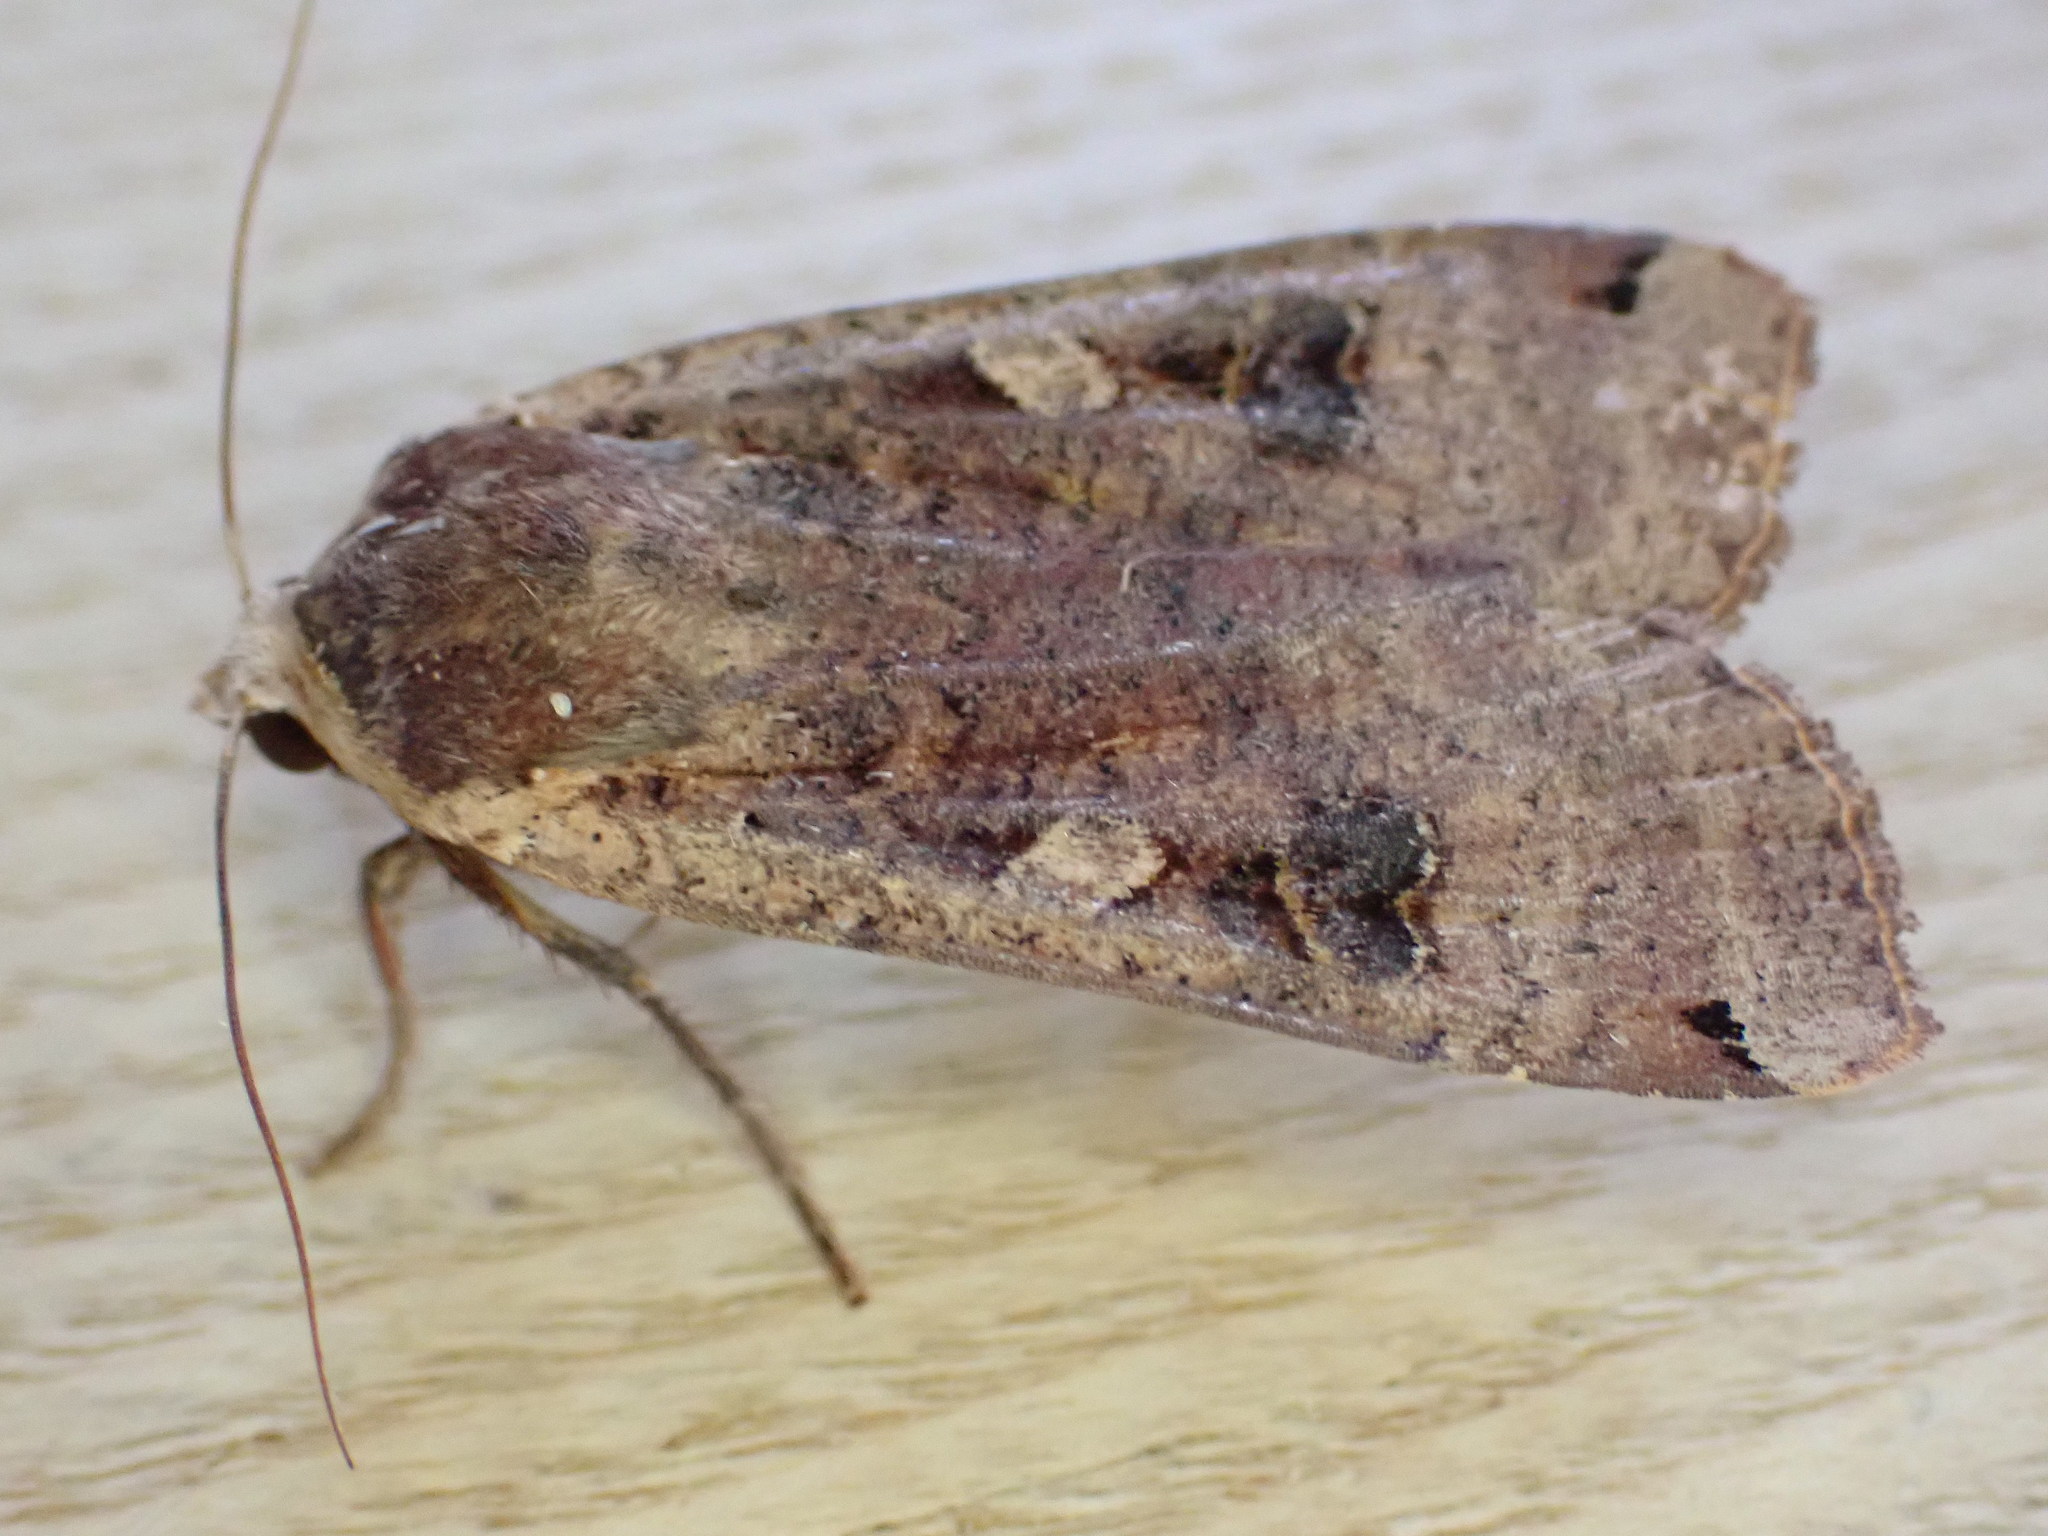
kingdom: Animalia
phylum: Arthropoda
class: Insecta
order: Lepidoptera
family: Noctuidae
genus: Noctua
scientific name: Noctua pronuba
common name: Large yellow underwing
